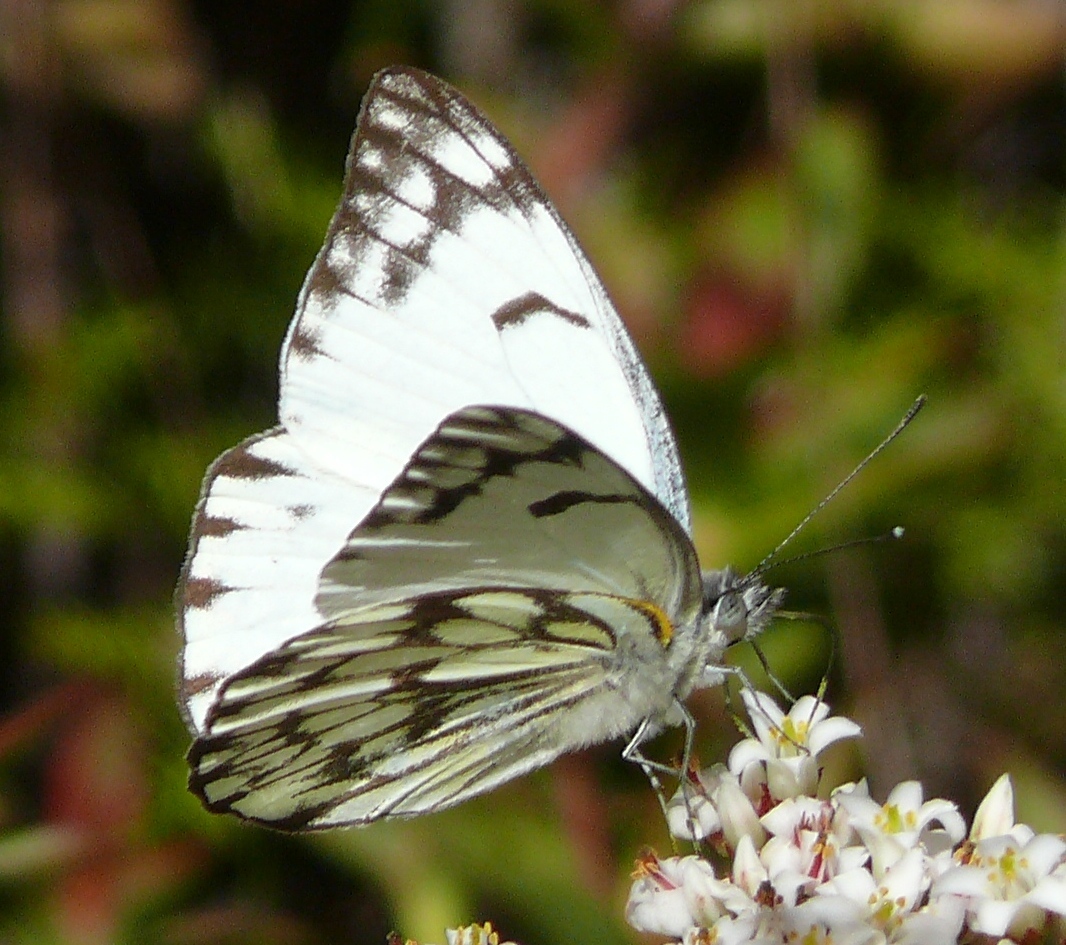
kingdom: Animalia
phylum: Arthropoda
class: Insecta
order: Lepidoptera
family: Pieridae
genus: Belenois
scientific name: Belenois gidica
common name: Pointed caper white
